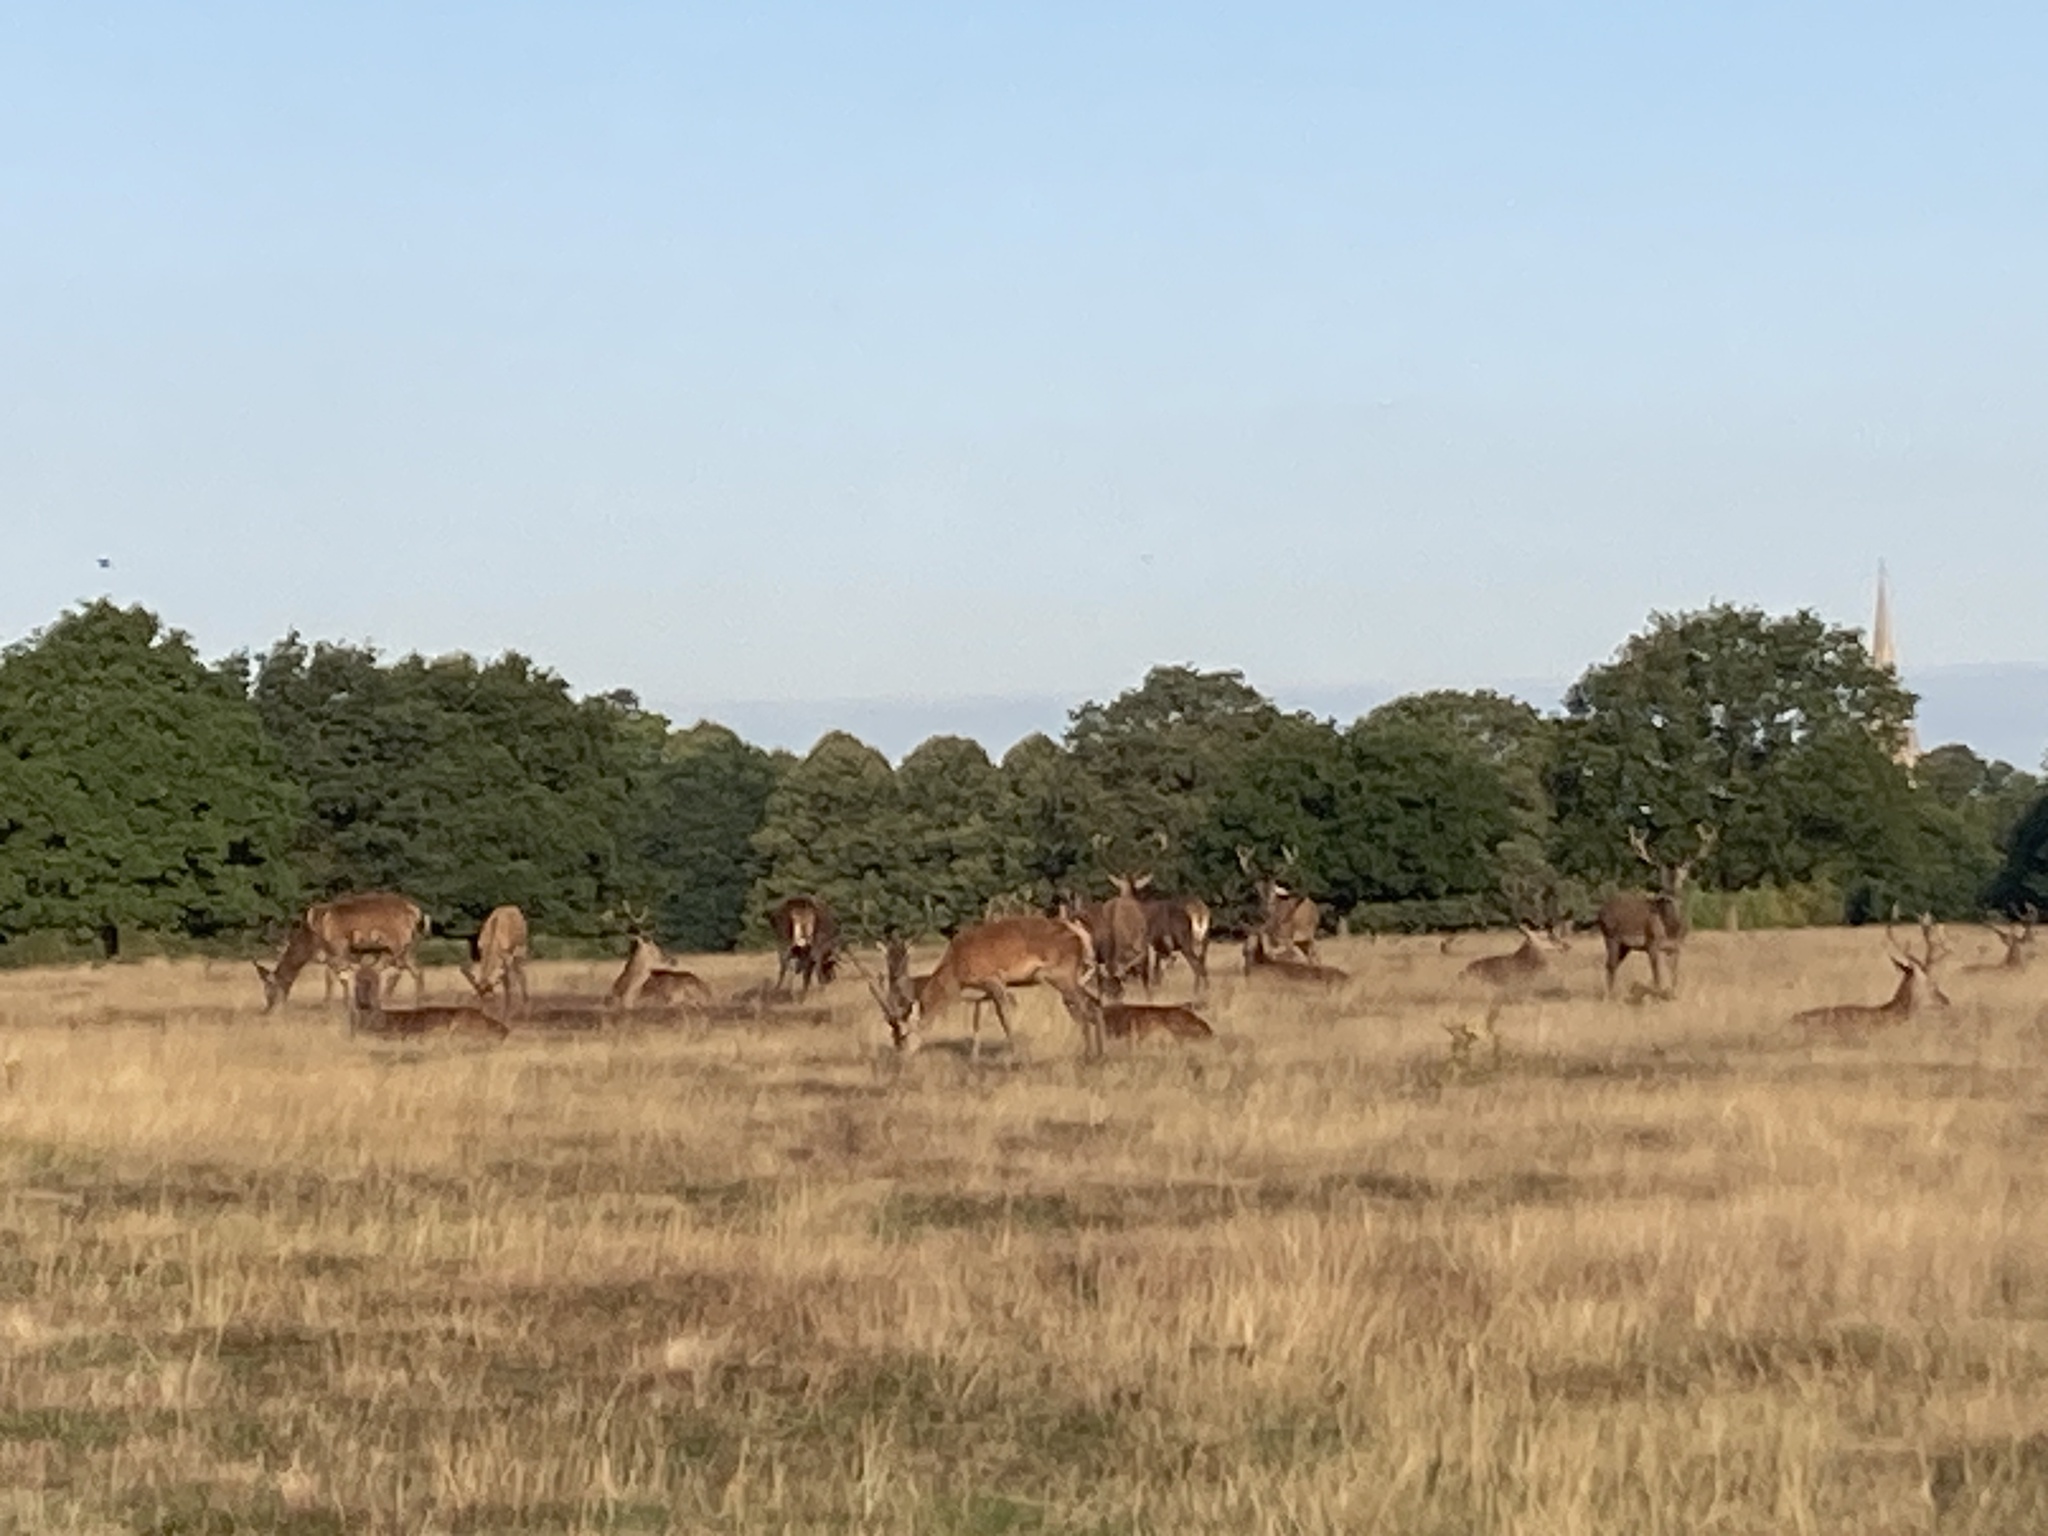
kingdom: Animalia
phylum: Chordata
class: Mammalia
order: Artiodactyla
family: Cervidae
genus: Cervus
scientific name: Cervus elaphus
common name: Red deer
